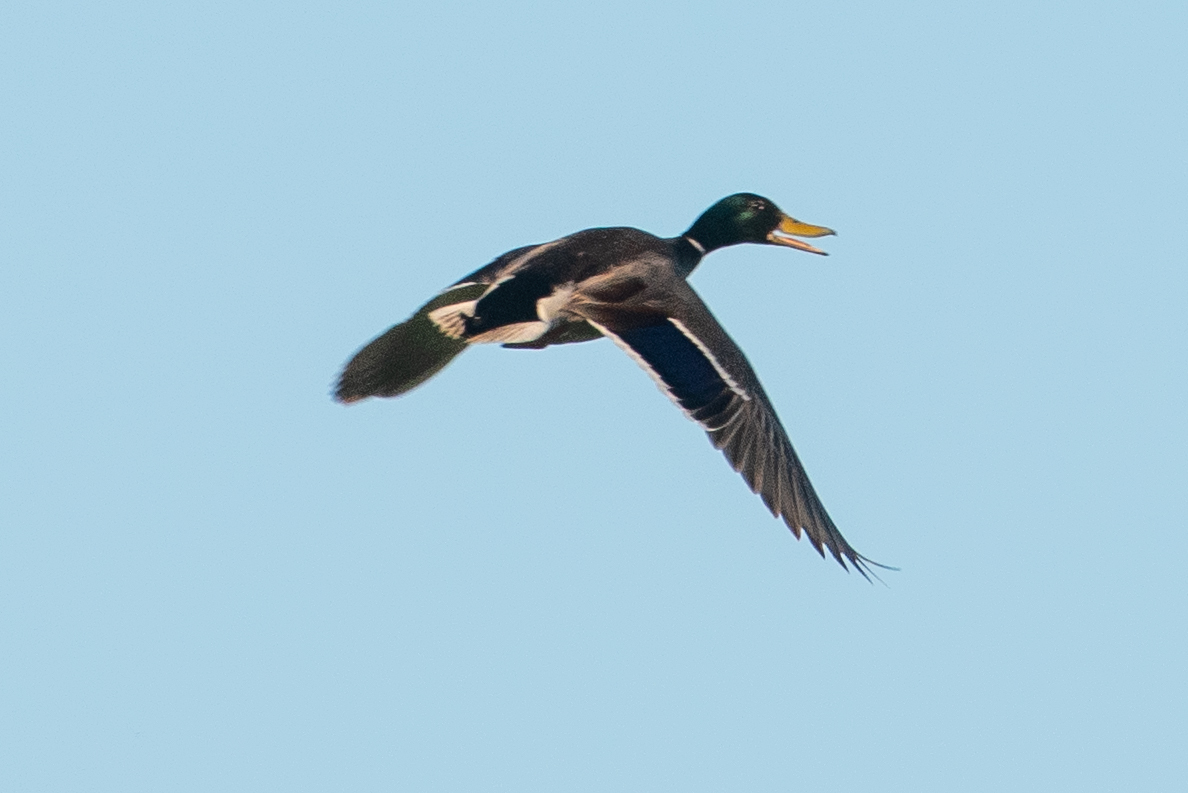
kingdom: Animalia
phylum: Chordata
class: Aves
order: Anseriformes
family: Anatidae
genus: Anas
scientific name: Anas platyrhynchos
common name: Mallard
